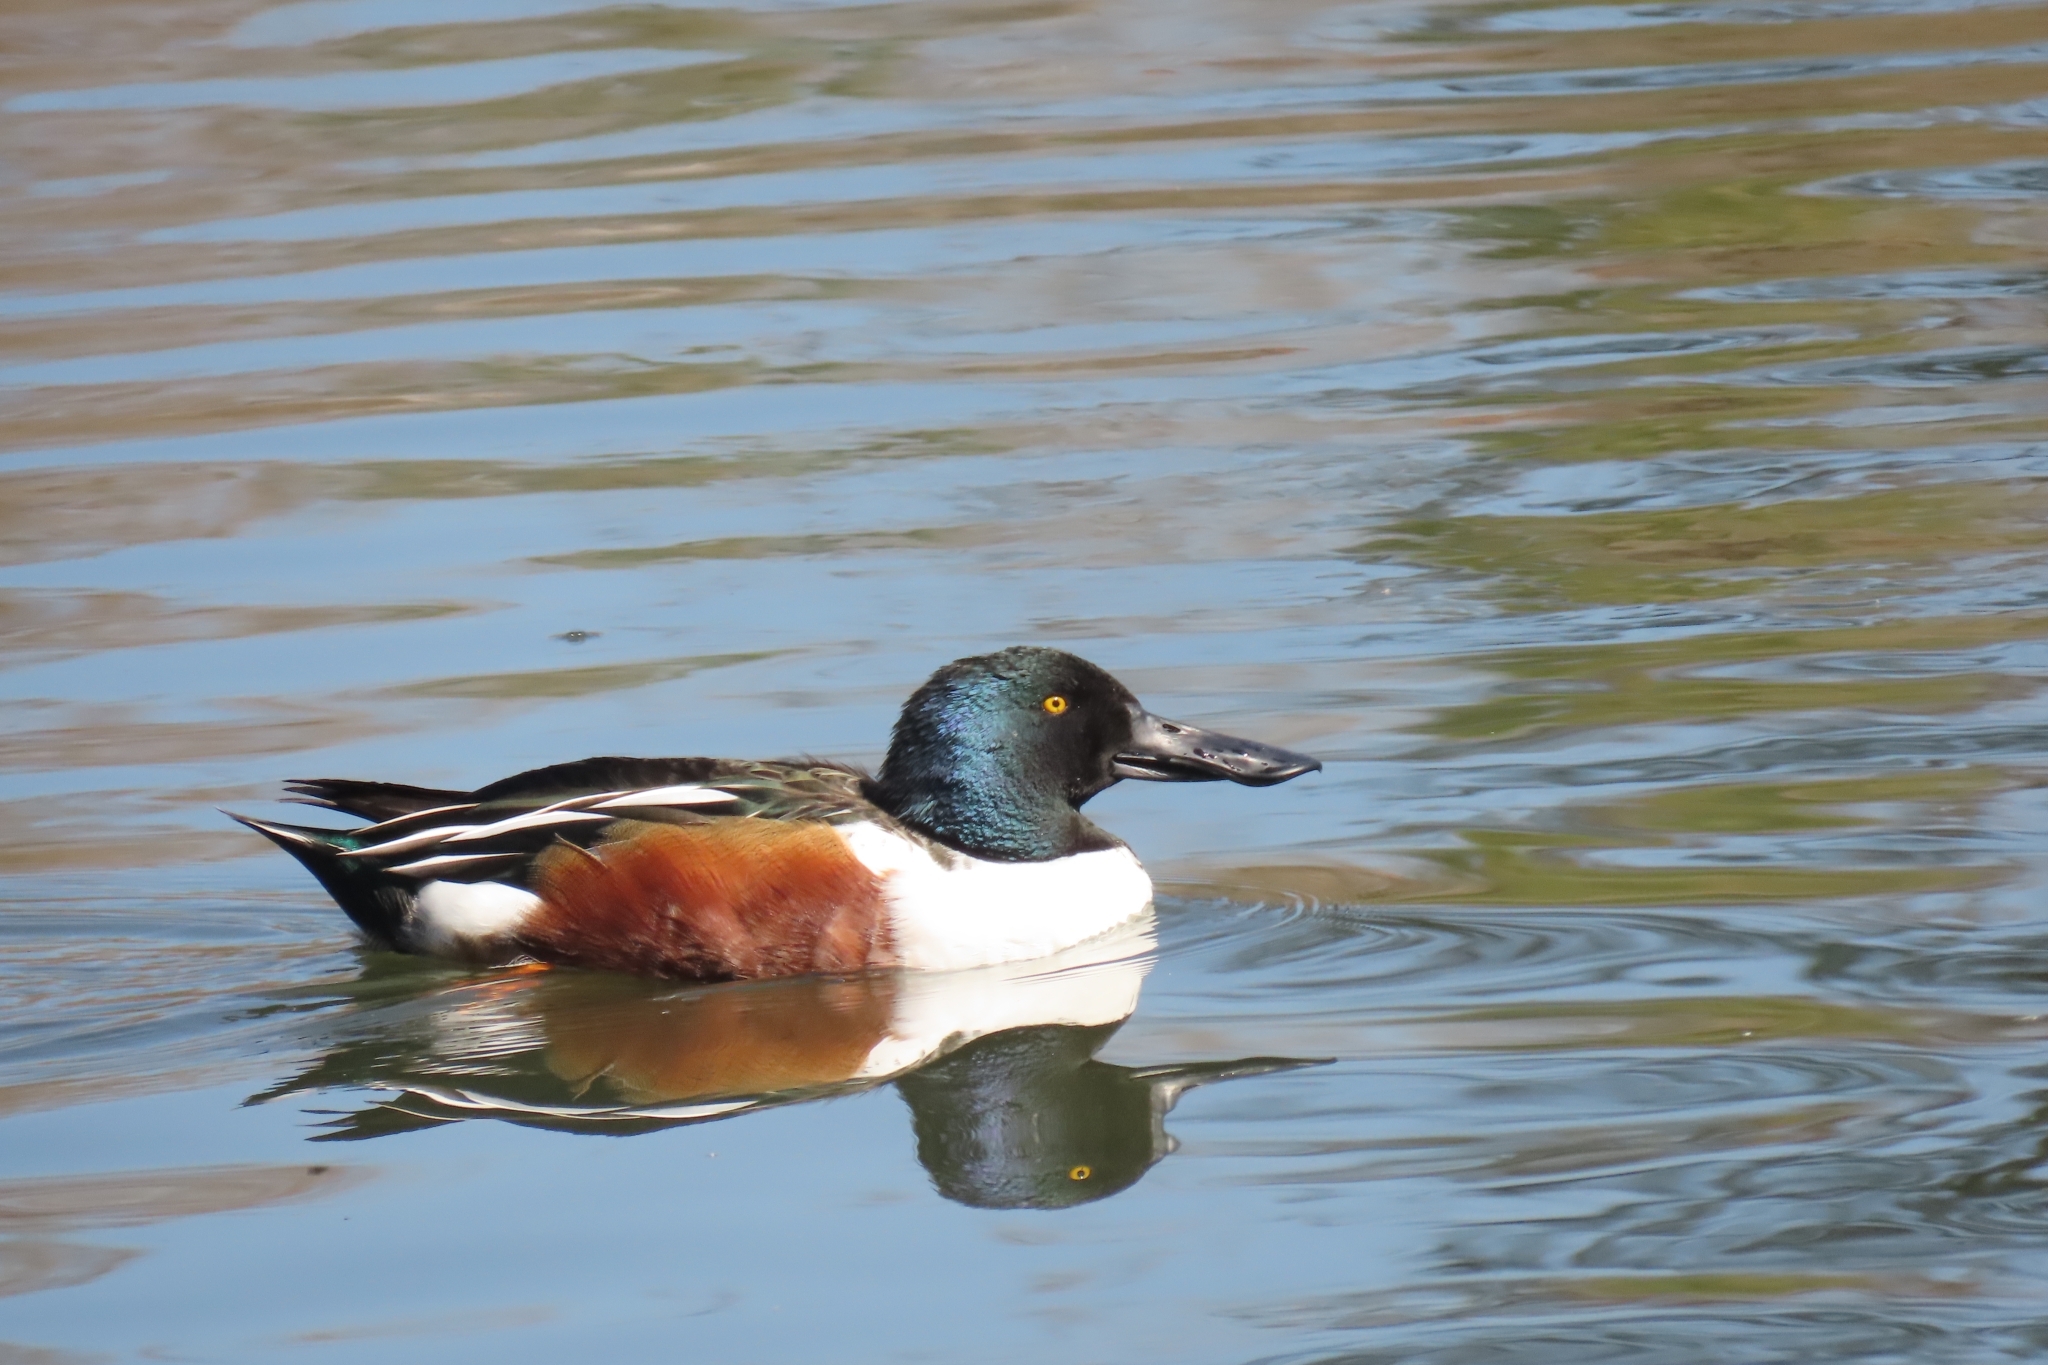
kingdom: Animalia
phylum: Chordata
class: Aves
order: Anseriformes
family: Anatidae
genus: Spatula
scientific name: Spatula clypeata
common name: Northern shoveler
